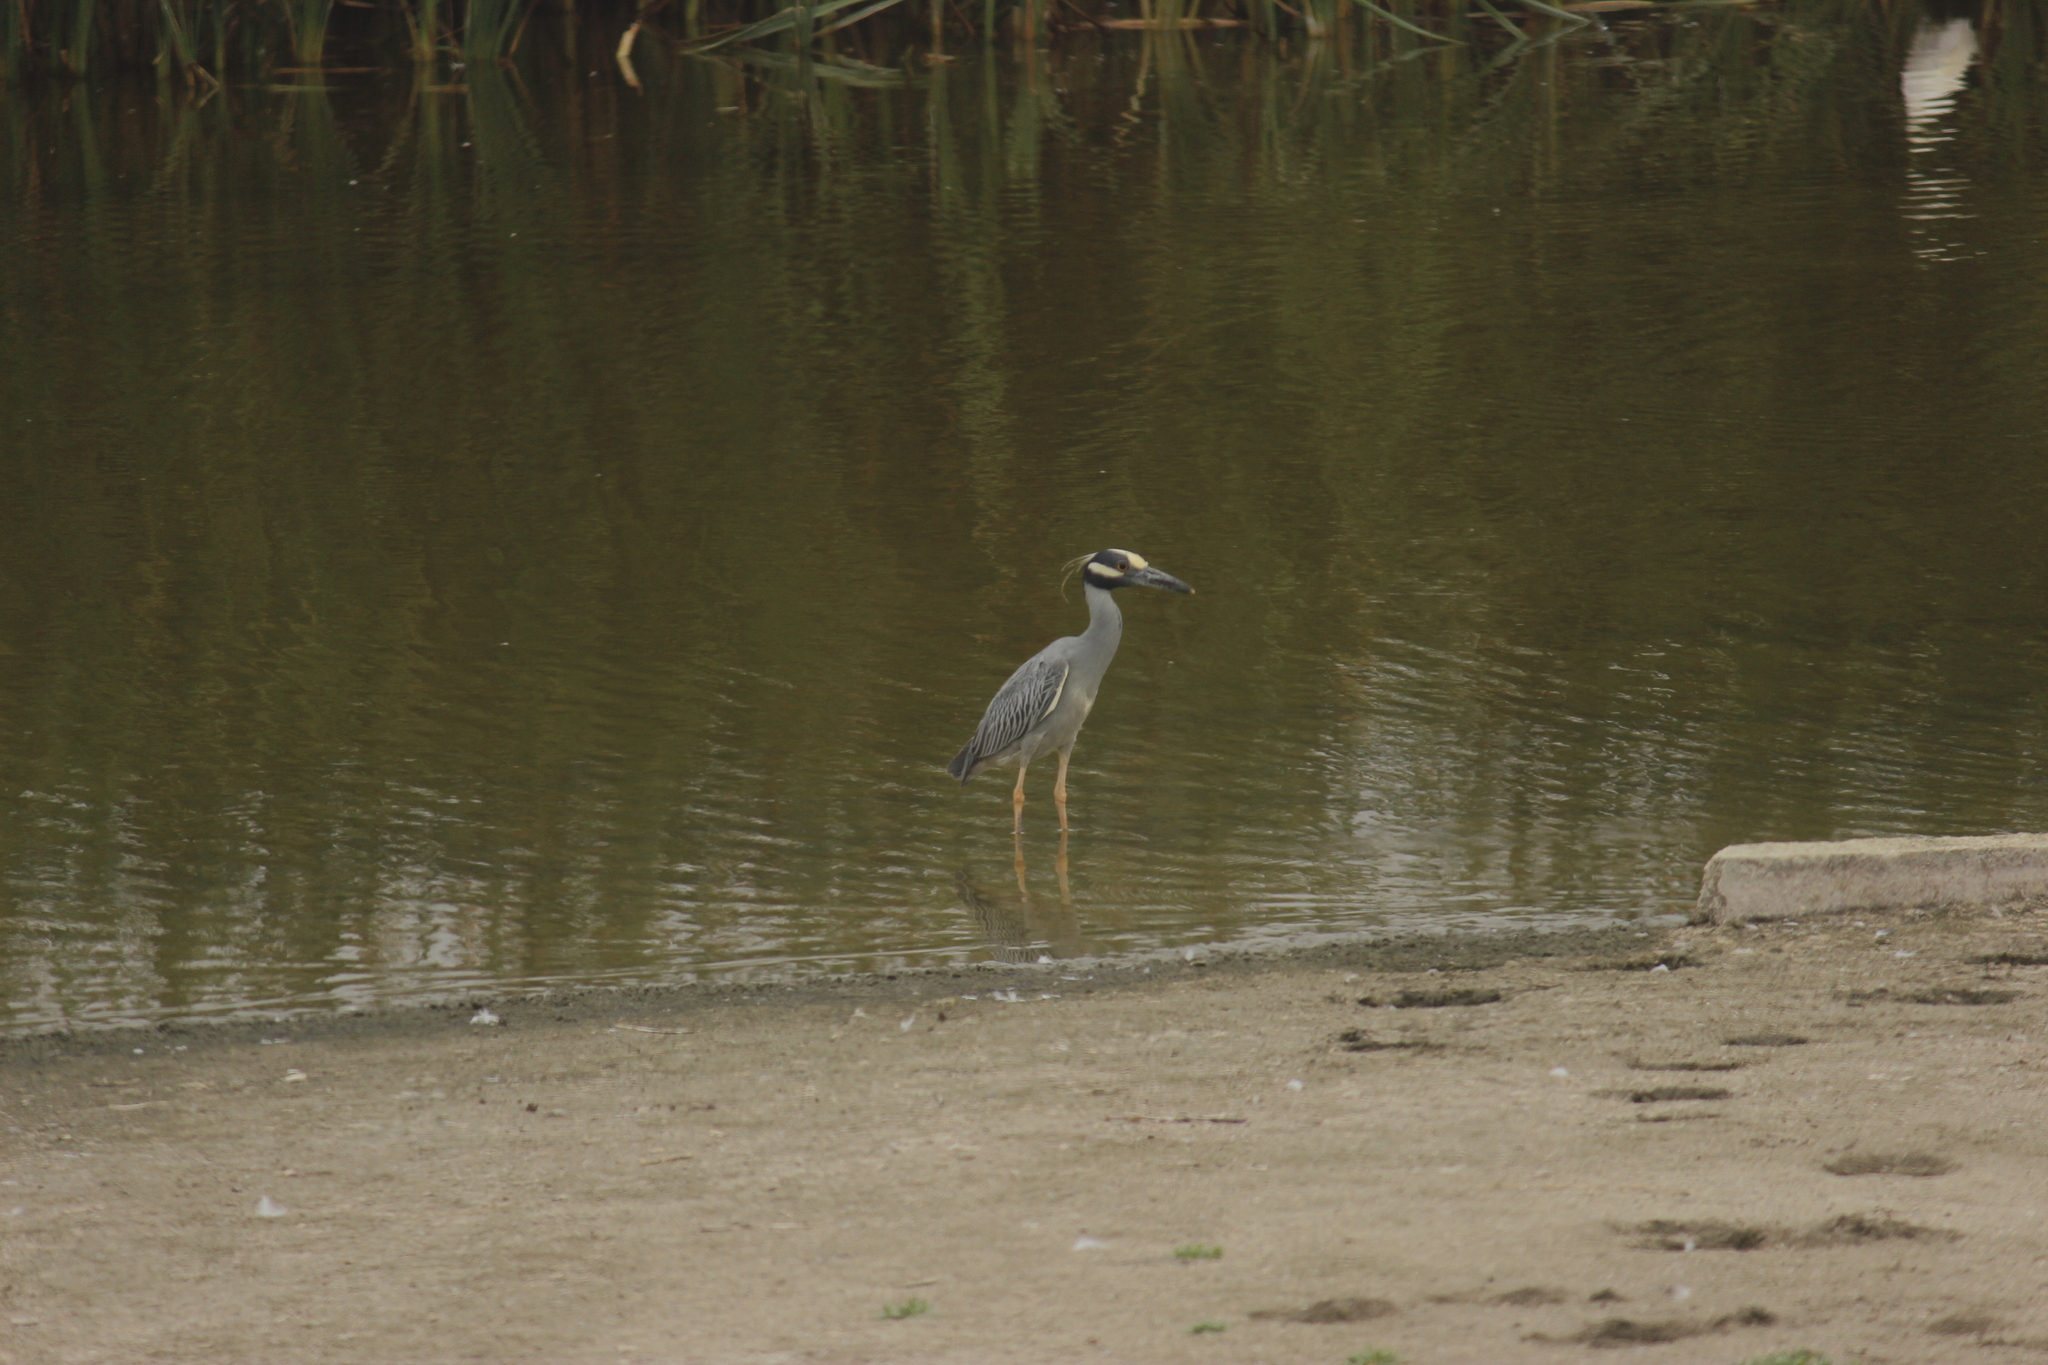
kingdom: Animalia
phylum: Chordata
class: Aves
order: Pelecaniformes
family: Ardeidae
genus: Nyctanassa
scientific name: Nyctanassa violacea
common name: Yellow-crowned night heron
